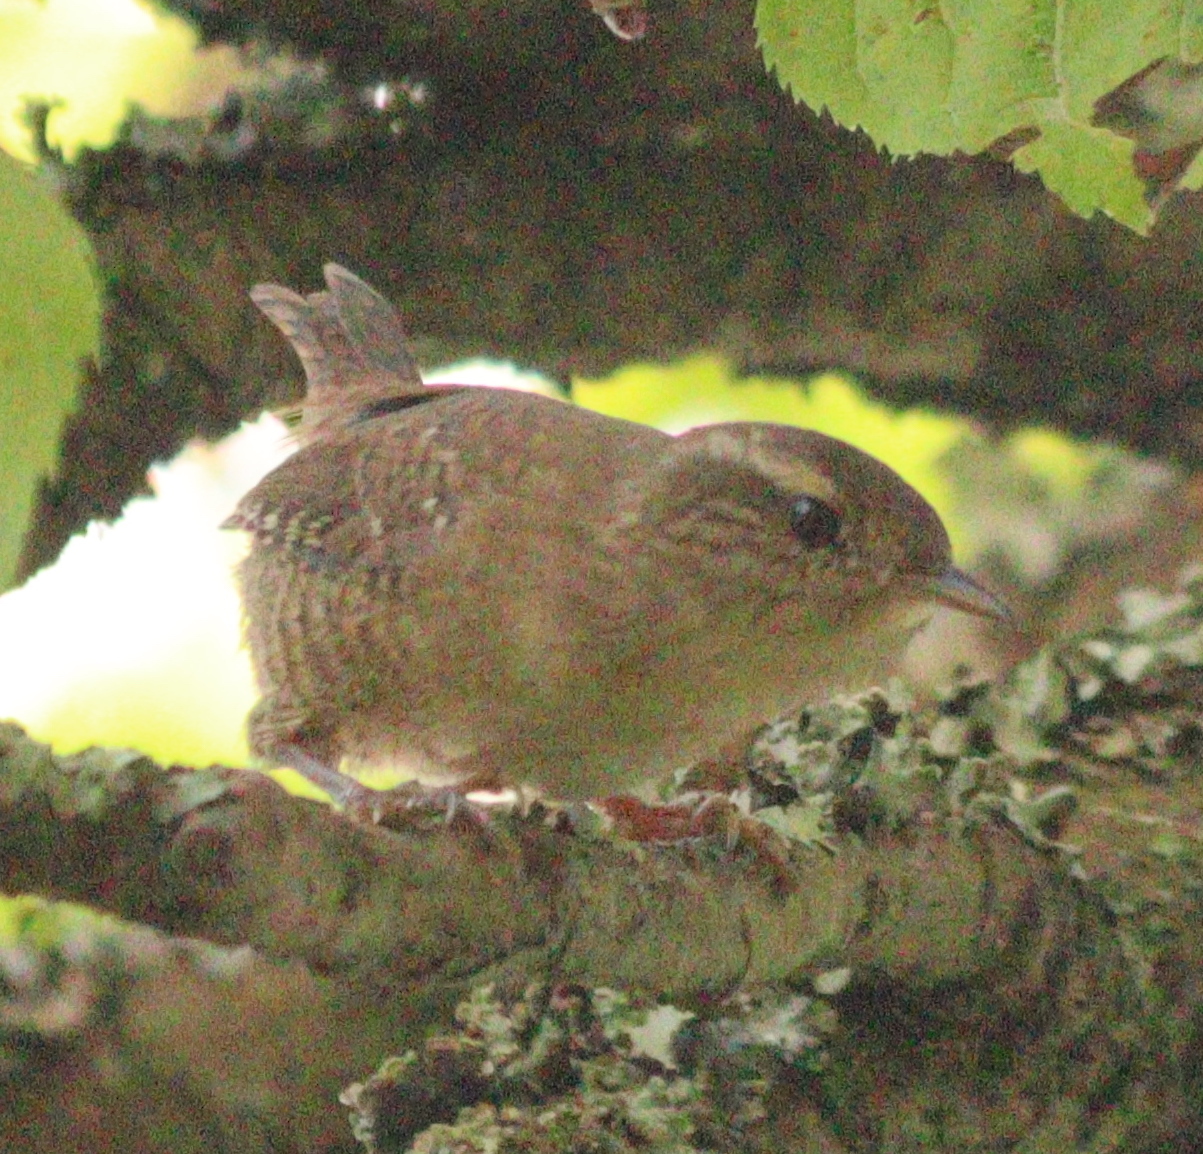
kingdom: Animalia
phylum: Chordata
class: Aves
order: Passeriformes
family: Troglodytidae
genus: Troglodytes
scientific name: Troglodytes troglodytes
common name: Eurasian wren
